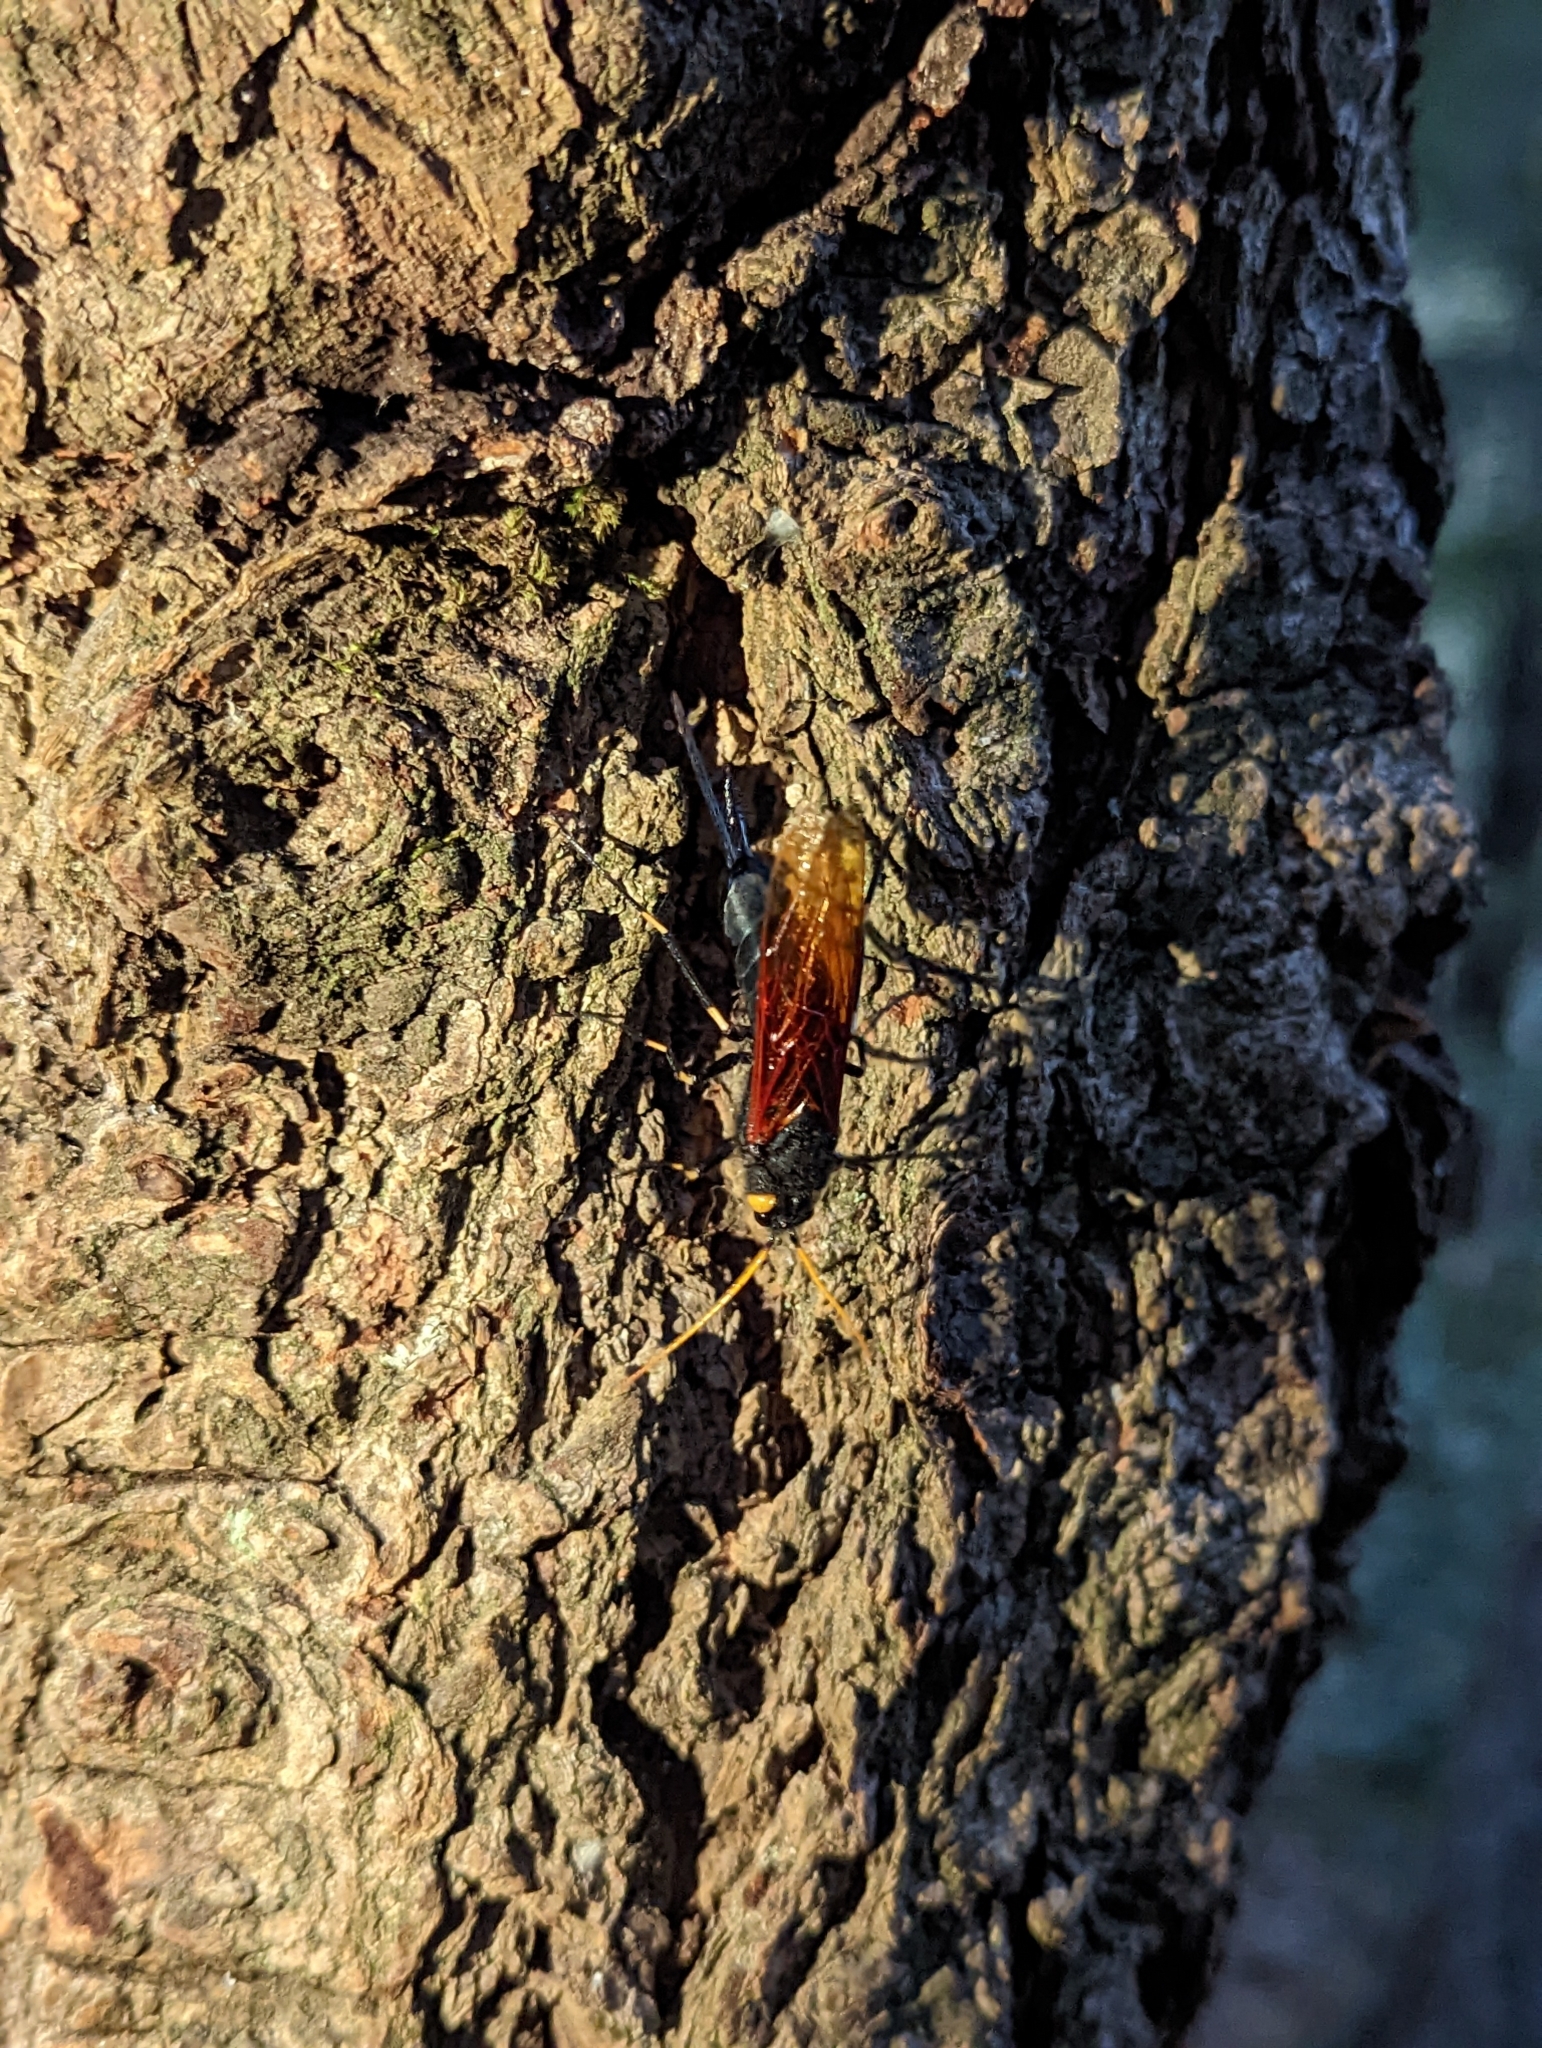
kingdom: Animalia
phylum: Arthropoda
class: Insecta
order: Hymenoptera
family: Siricidae
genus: Urocerus
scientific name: Urocerus californicus
